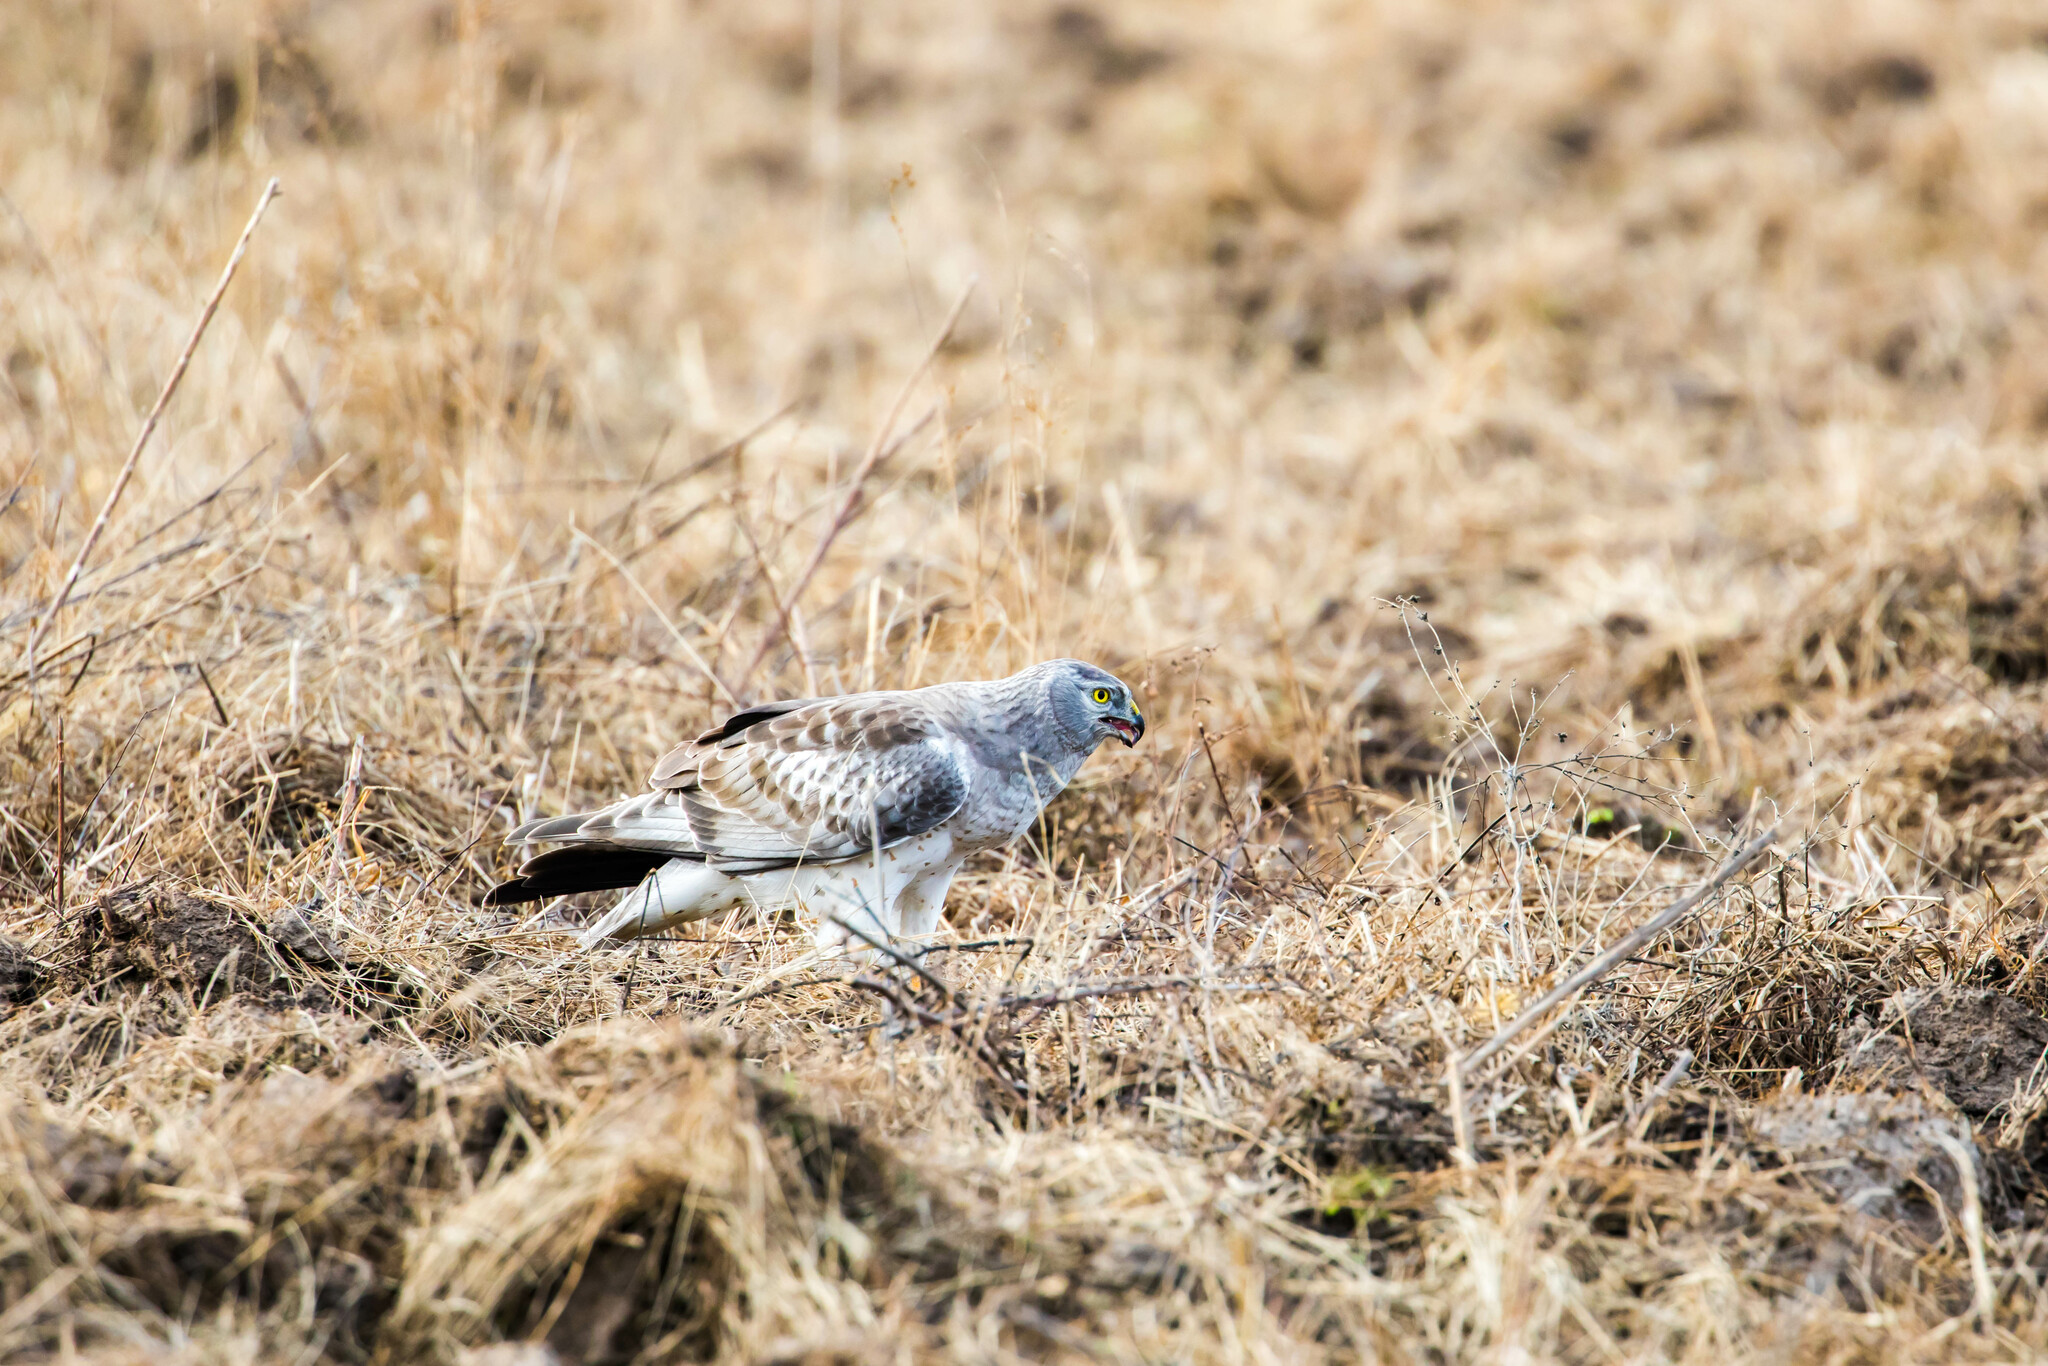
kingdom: Animalia
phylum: Chordata
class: Aves
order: Accipitriformes
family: Accipitridae
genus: Circus
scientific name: Circus cyaneus
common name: Hen harrier
